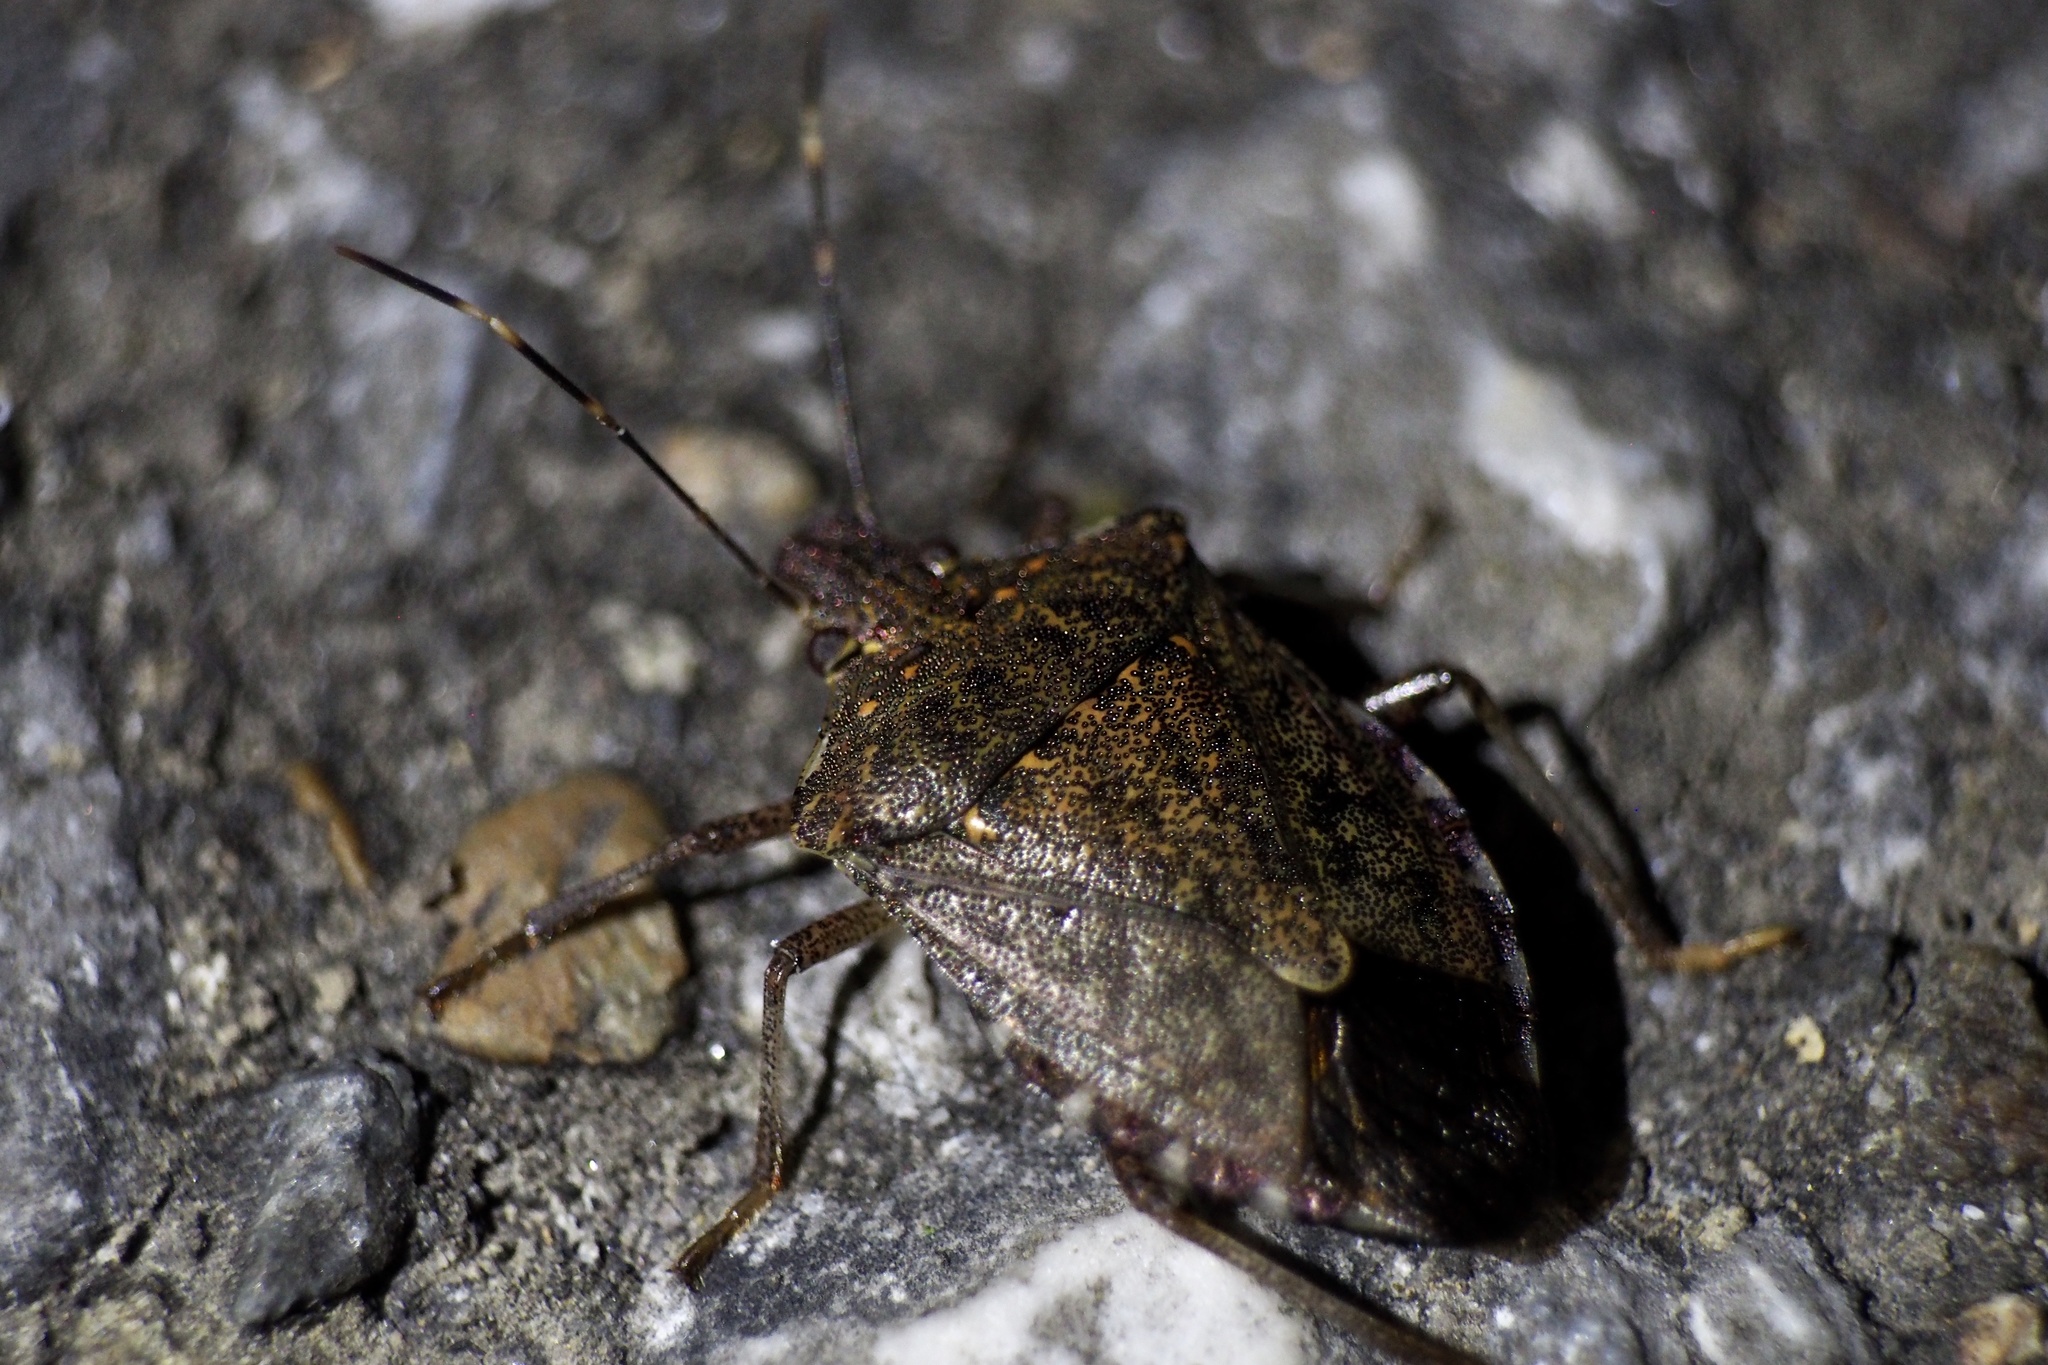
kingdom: Animalia
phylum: Arthropoda
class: Insecta
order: Hemiptera
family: Pentatomidae
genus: Halyomorpha
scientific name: Halyomorpha halys
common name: Brown marmorated stink bug
